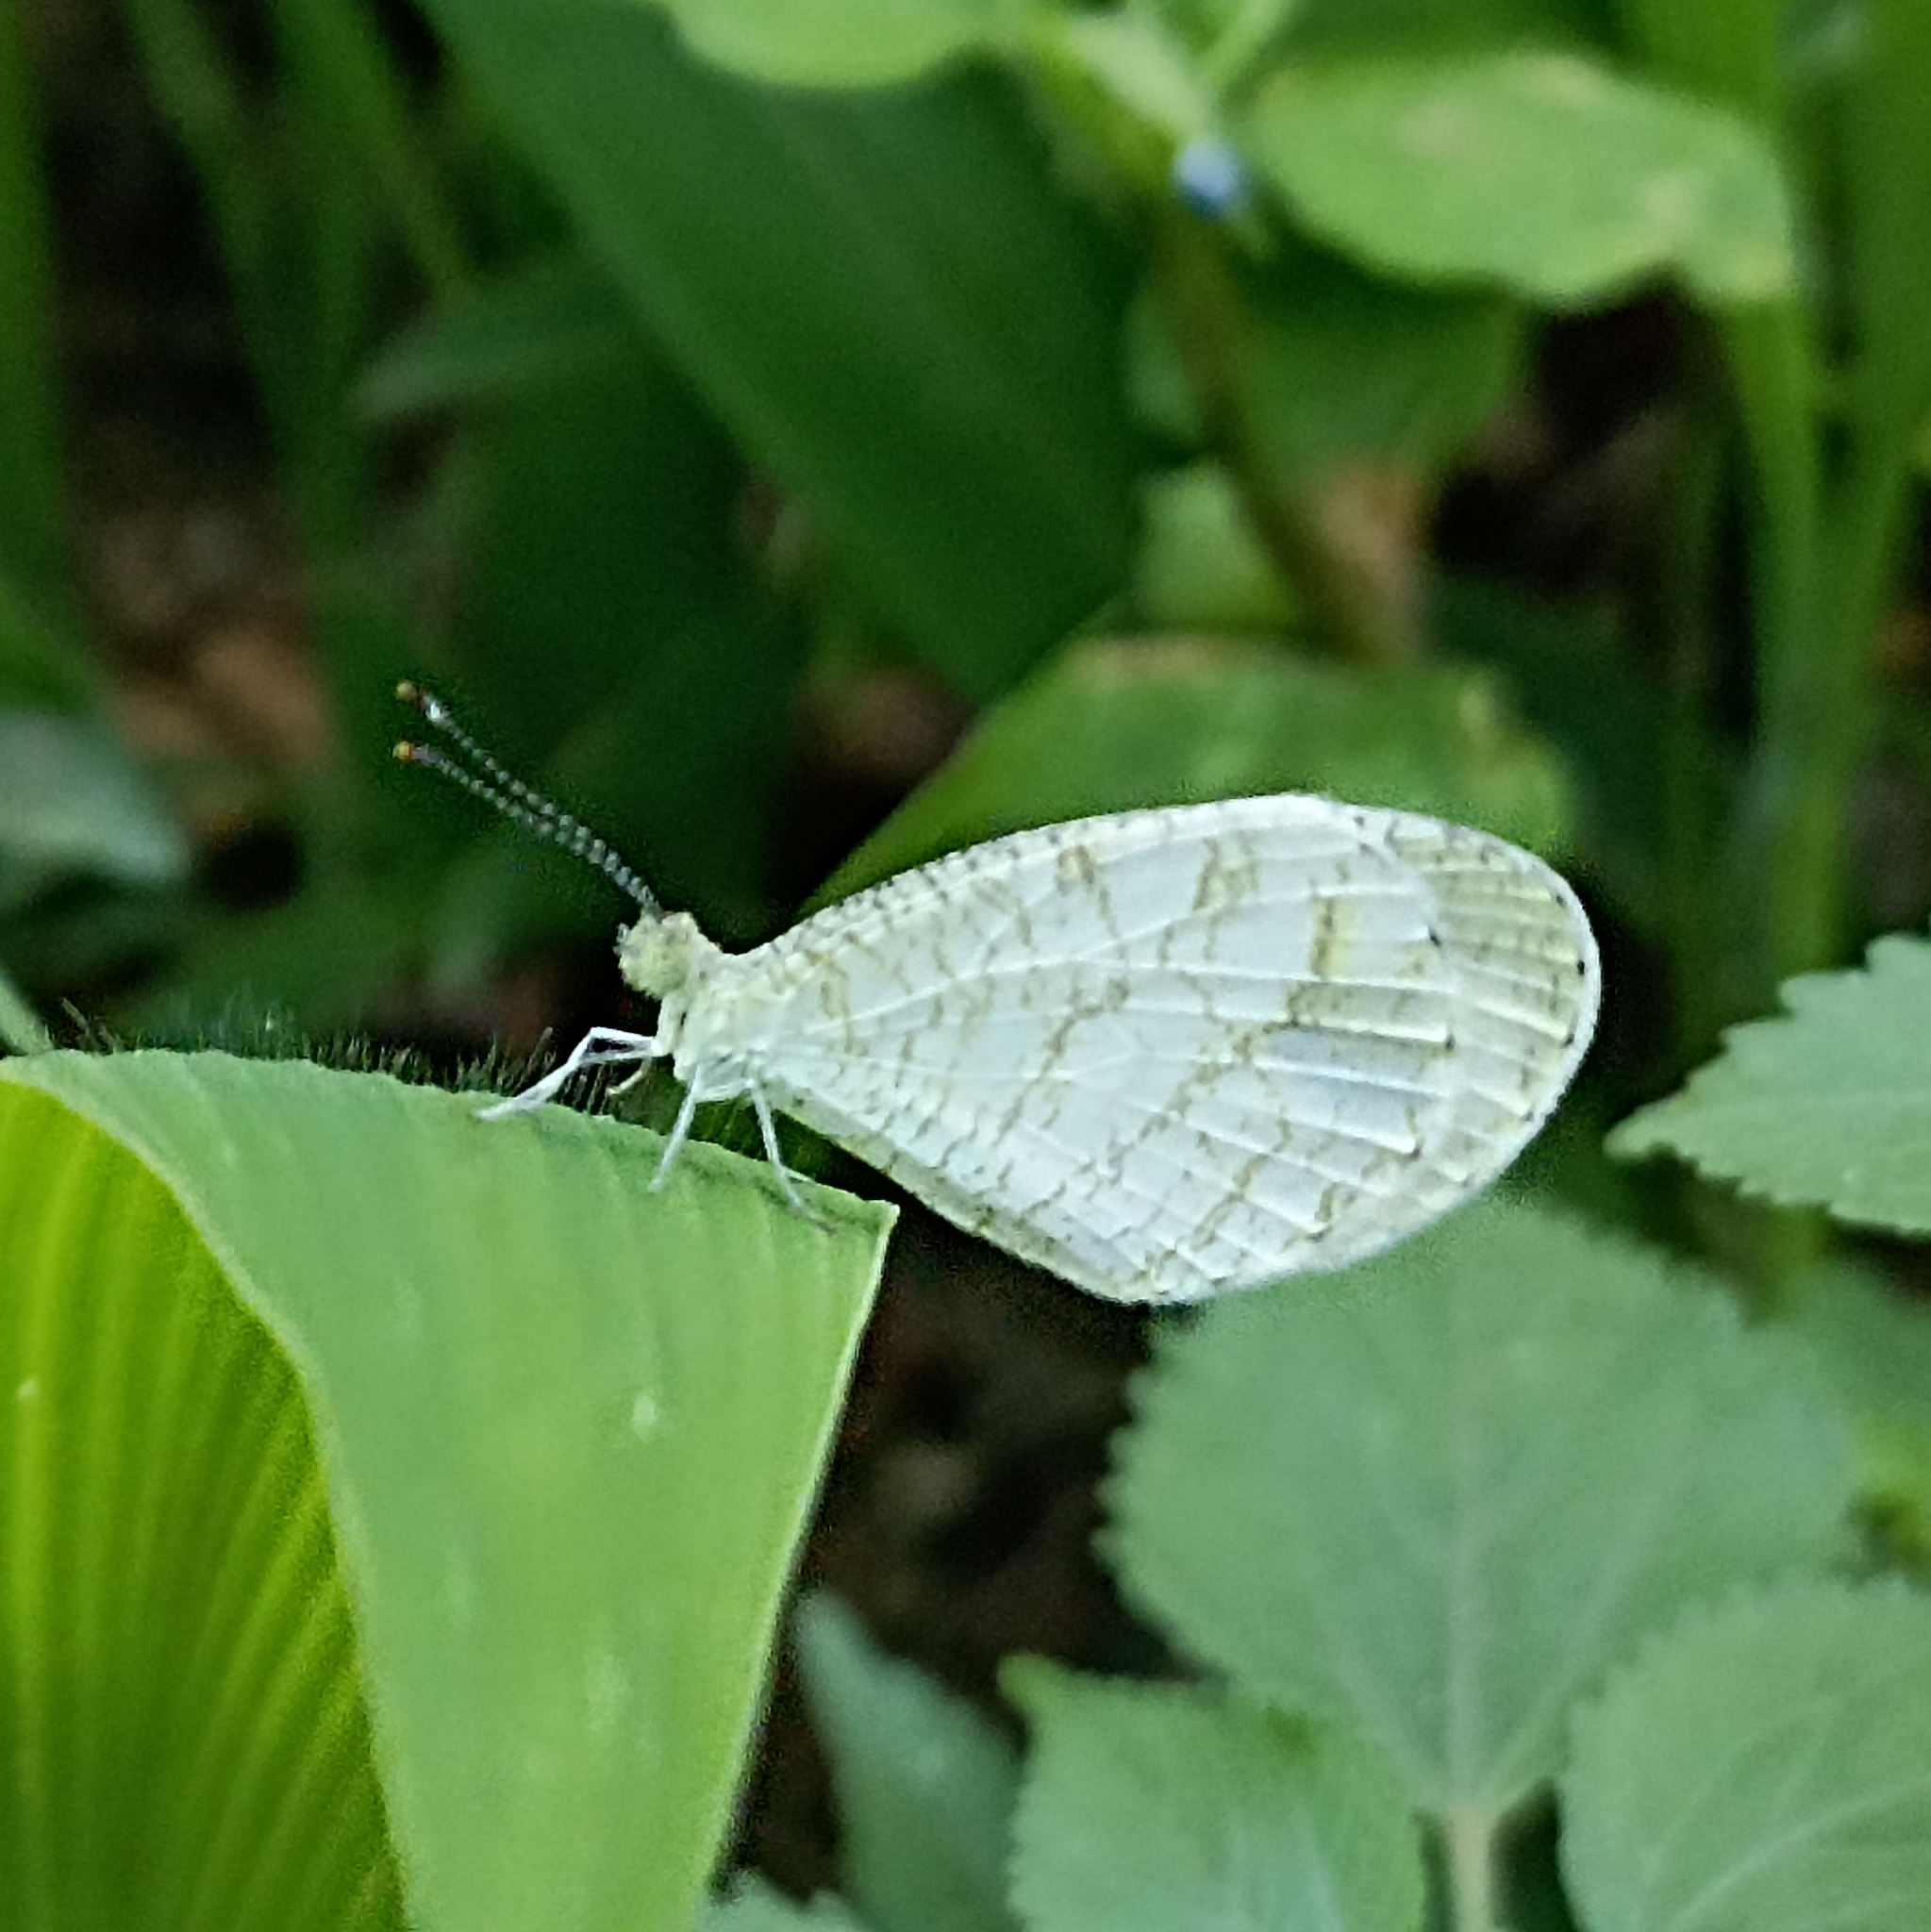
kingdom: Animalia
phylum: Arthropoda
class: Insecta
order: Lepidoptera
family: Pieridae
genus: Leptosia
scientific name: Leptosia nina
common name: Psyche
